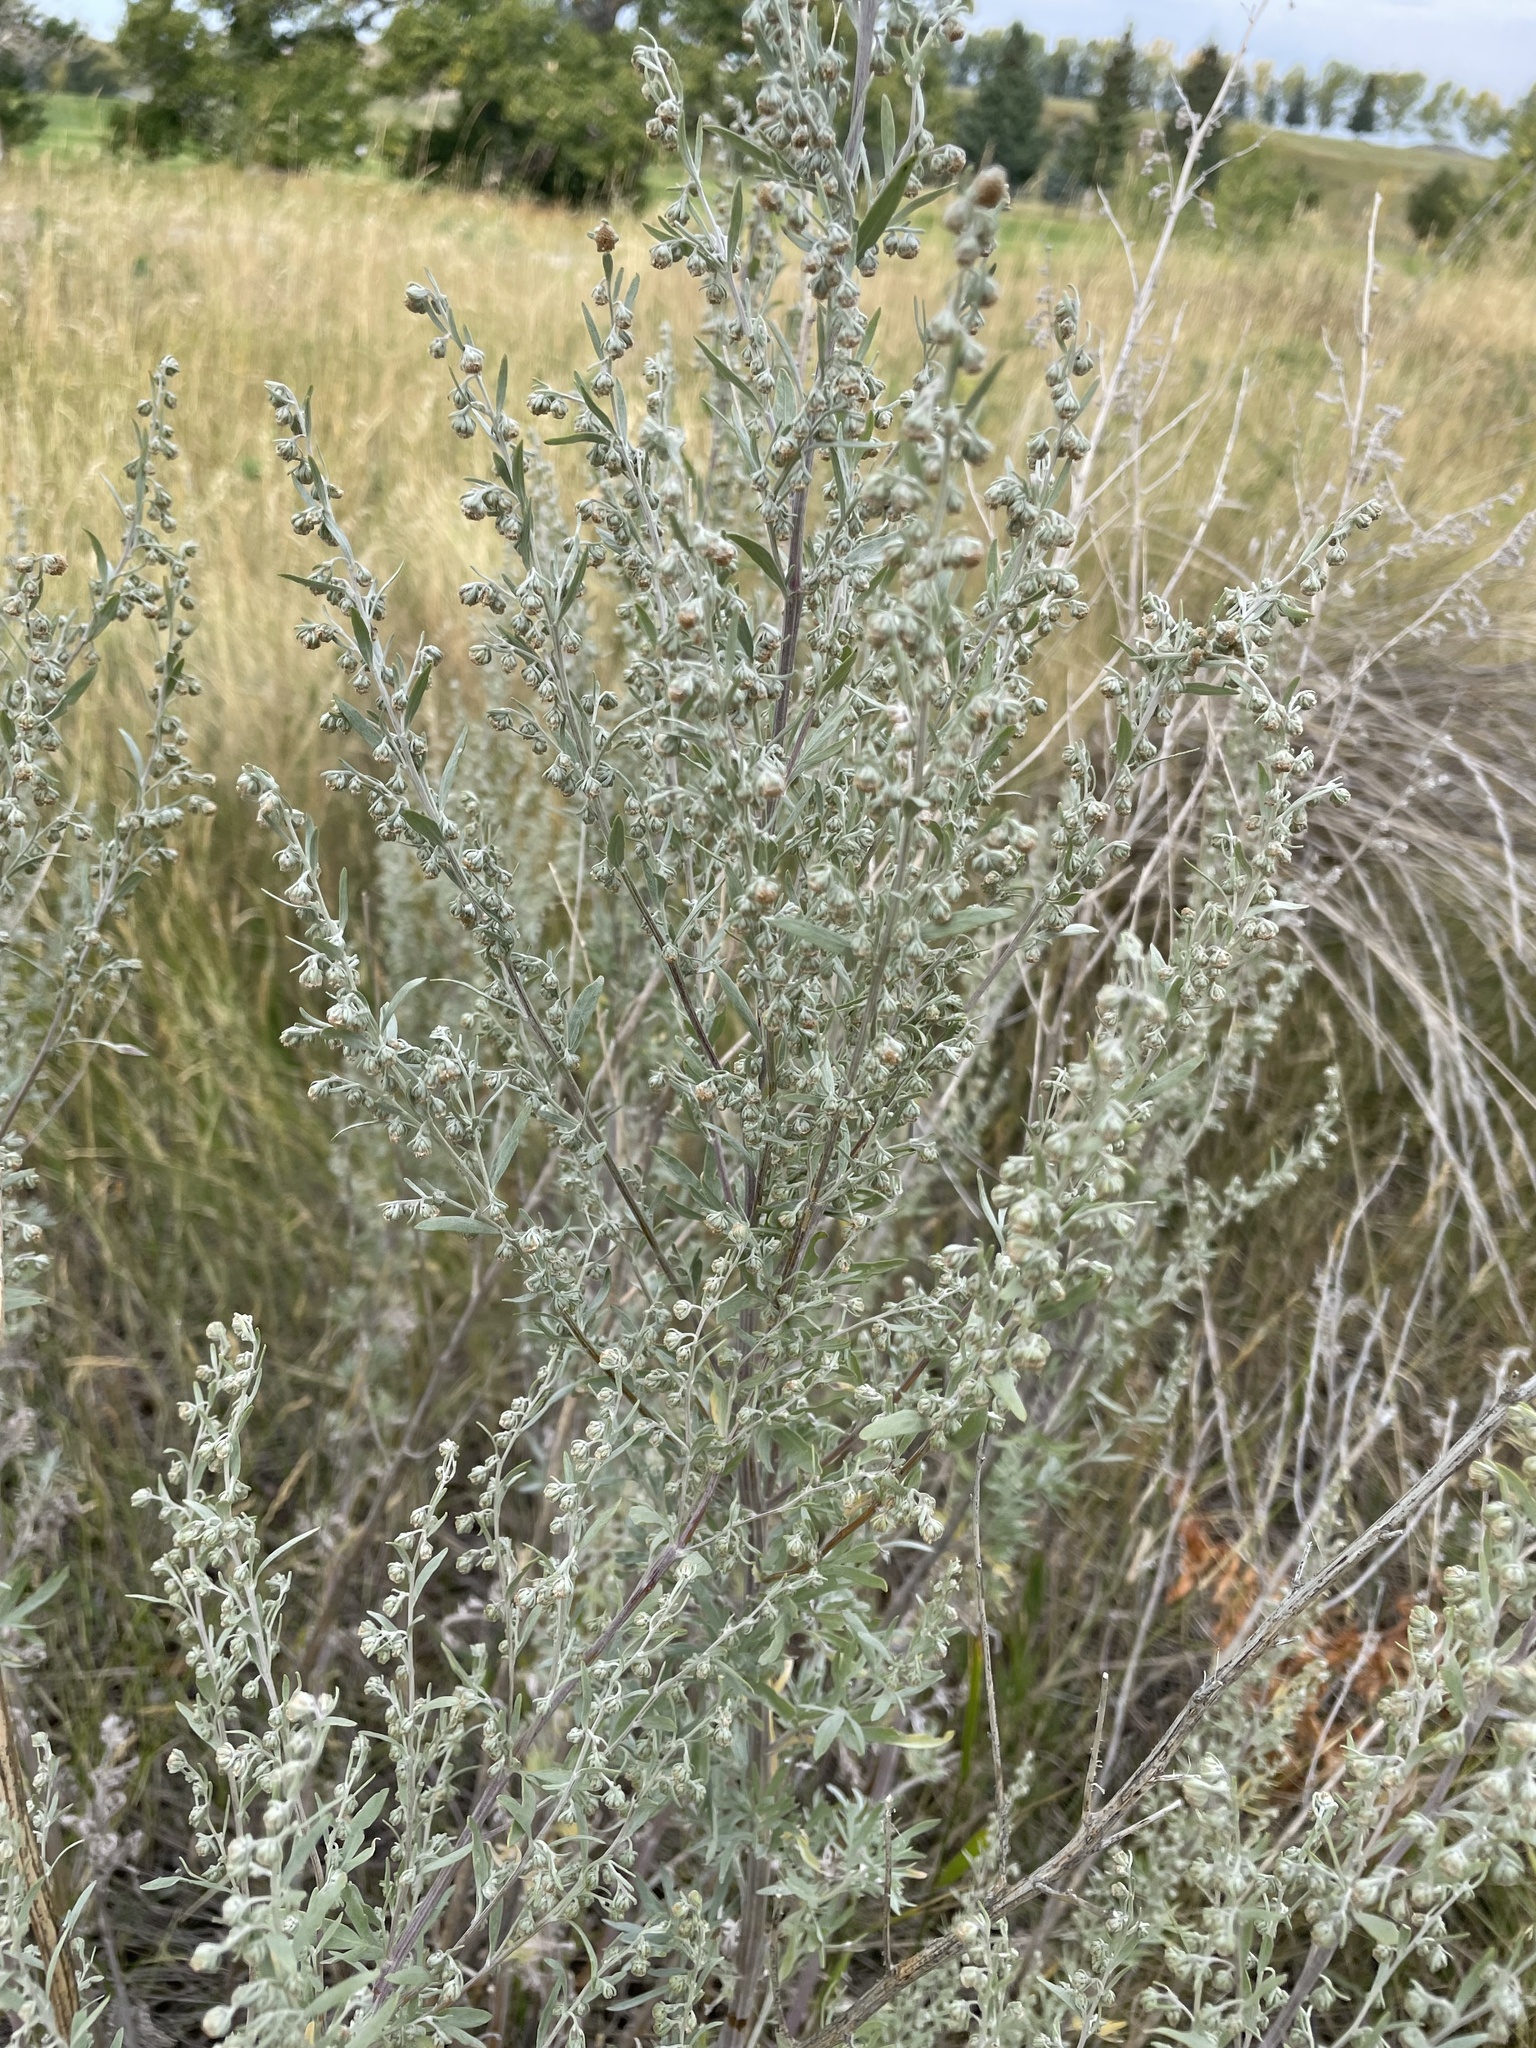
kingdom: Plantae
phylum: Tracheophyta
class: Magnoliopsida
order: Asterales
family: Asteraceae
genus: Artemisia
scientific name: Artemisia absinthium
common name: Wormwood
